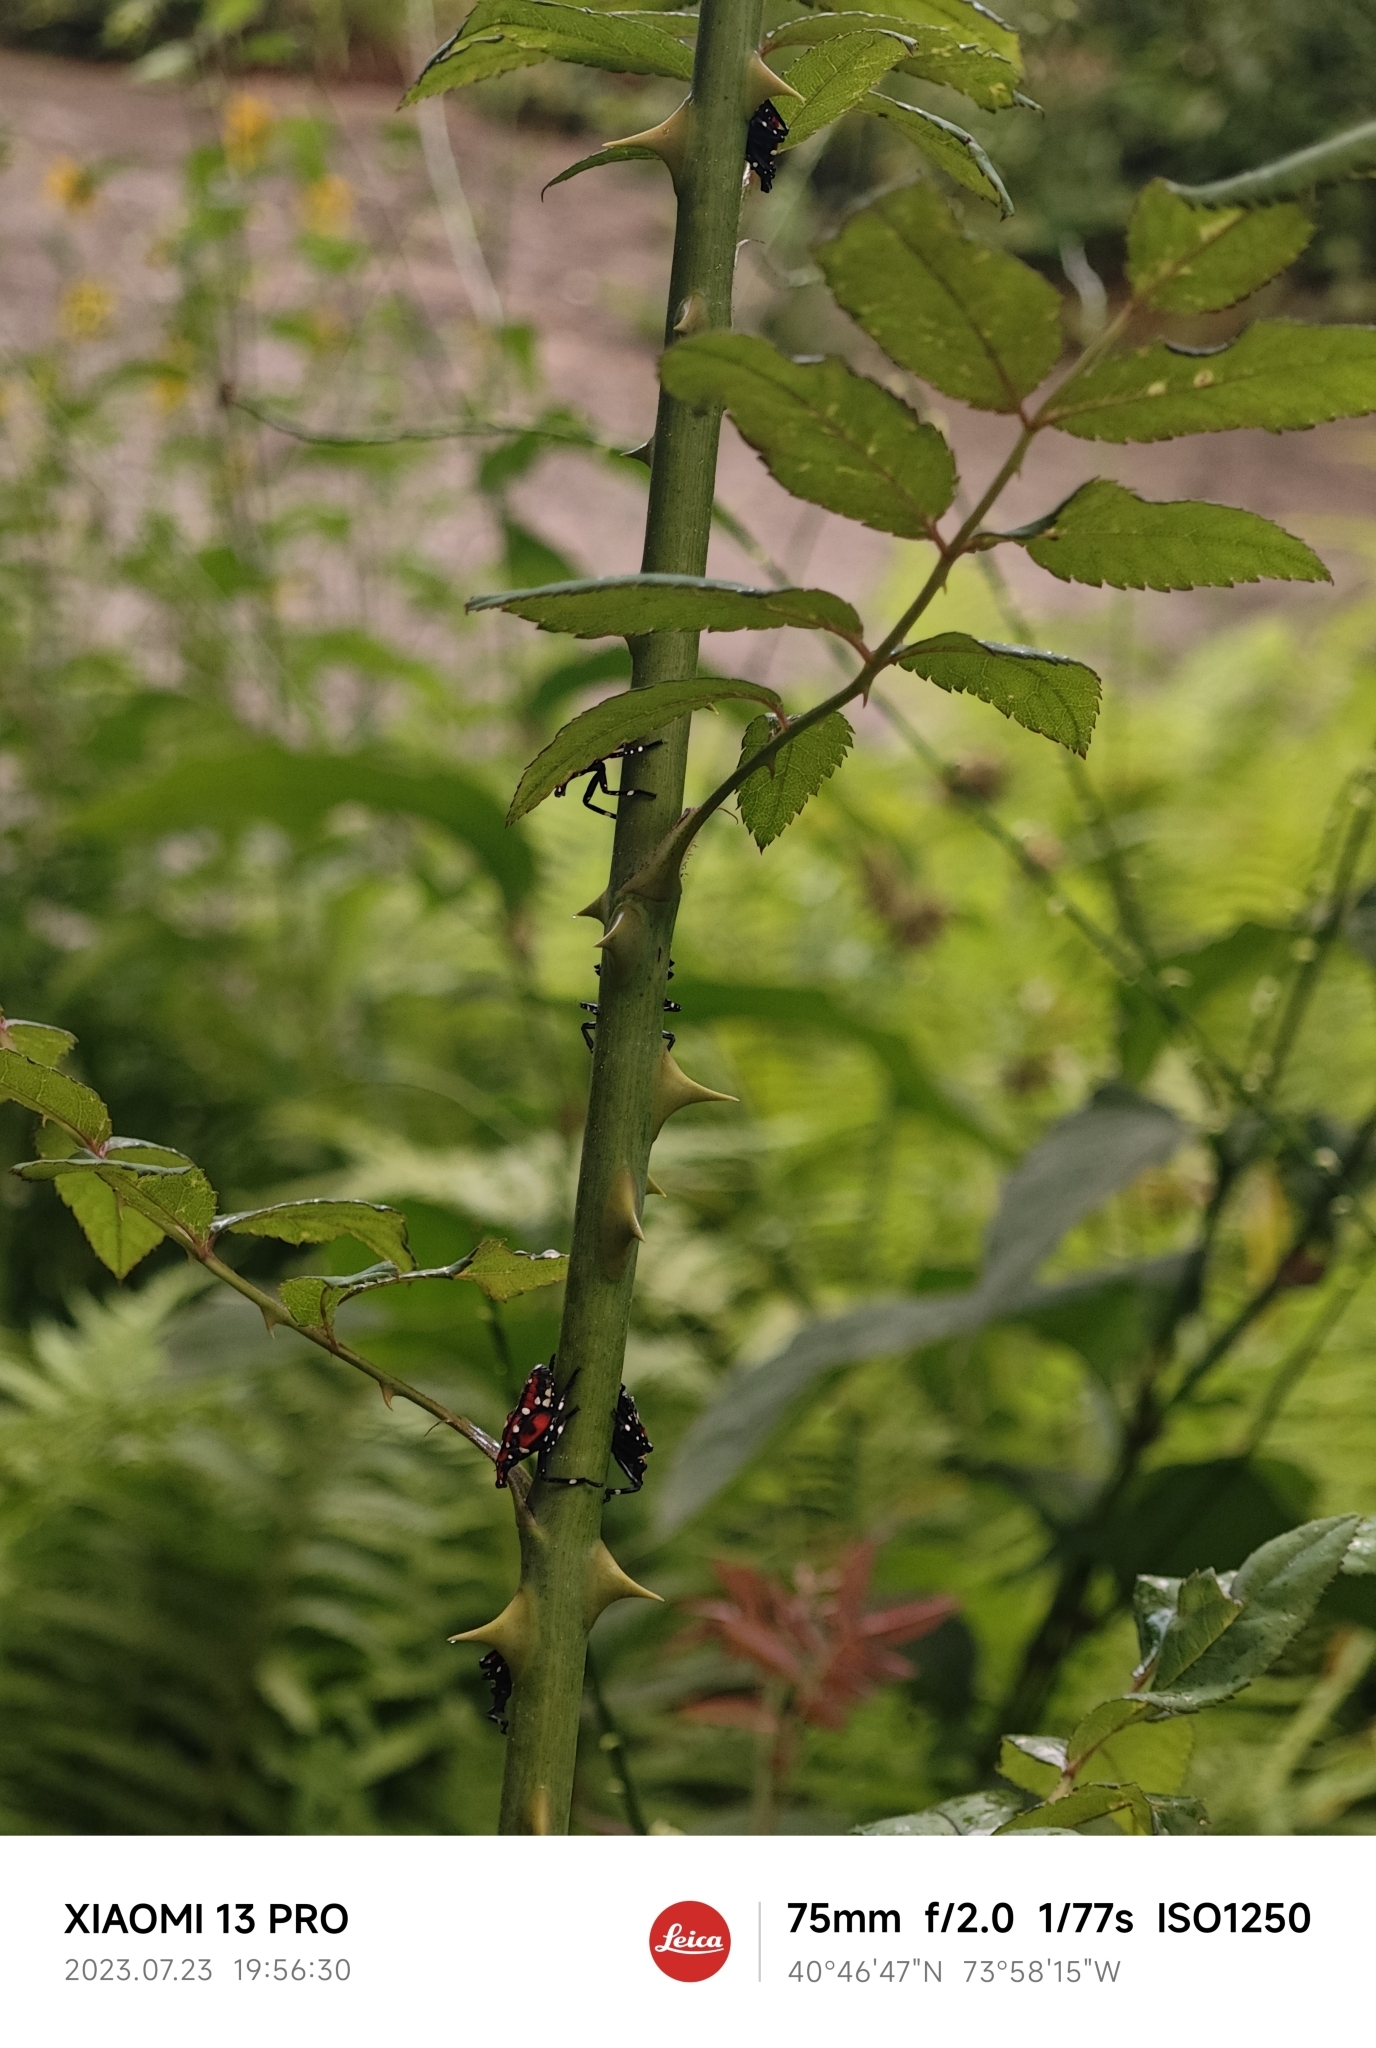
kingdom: Animalia
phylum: Arthropoda
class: Insecta
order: Hemiptera
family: Fulgoridae
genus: Lycorma
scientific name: Lycorma delicatula
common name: Spotted lanternfly
